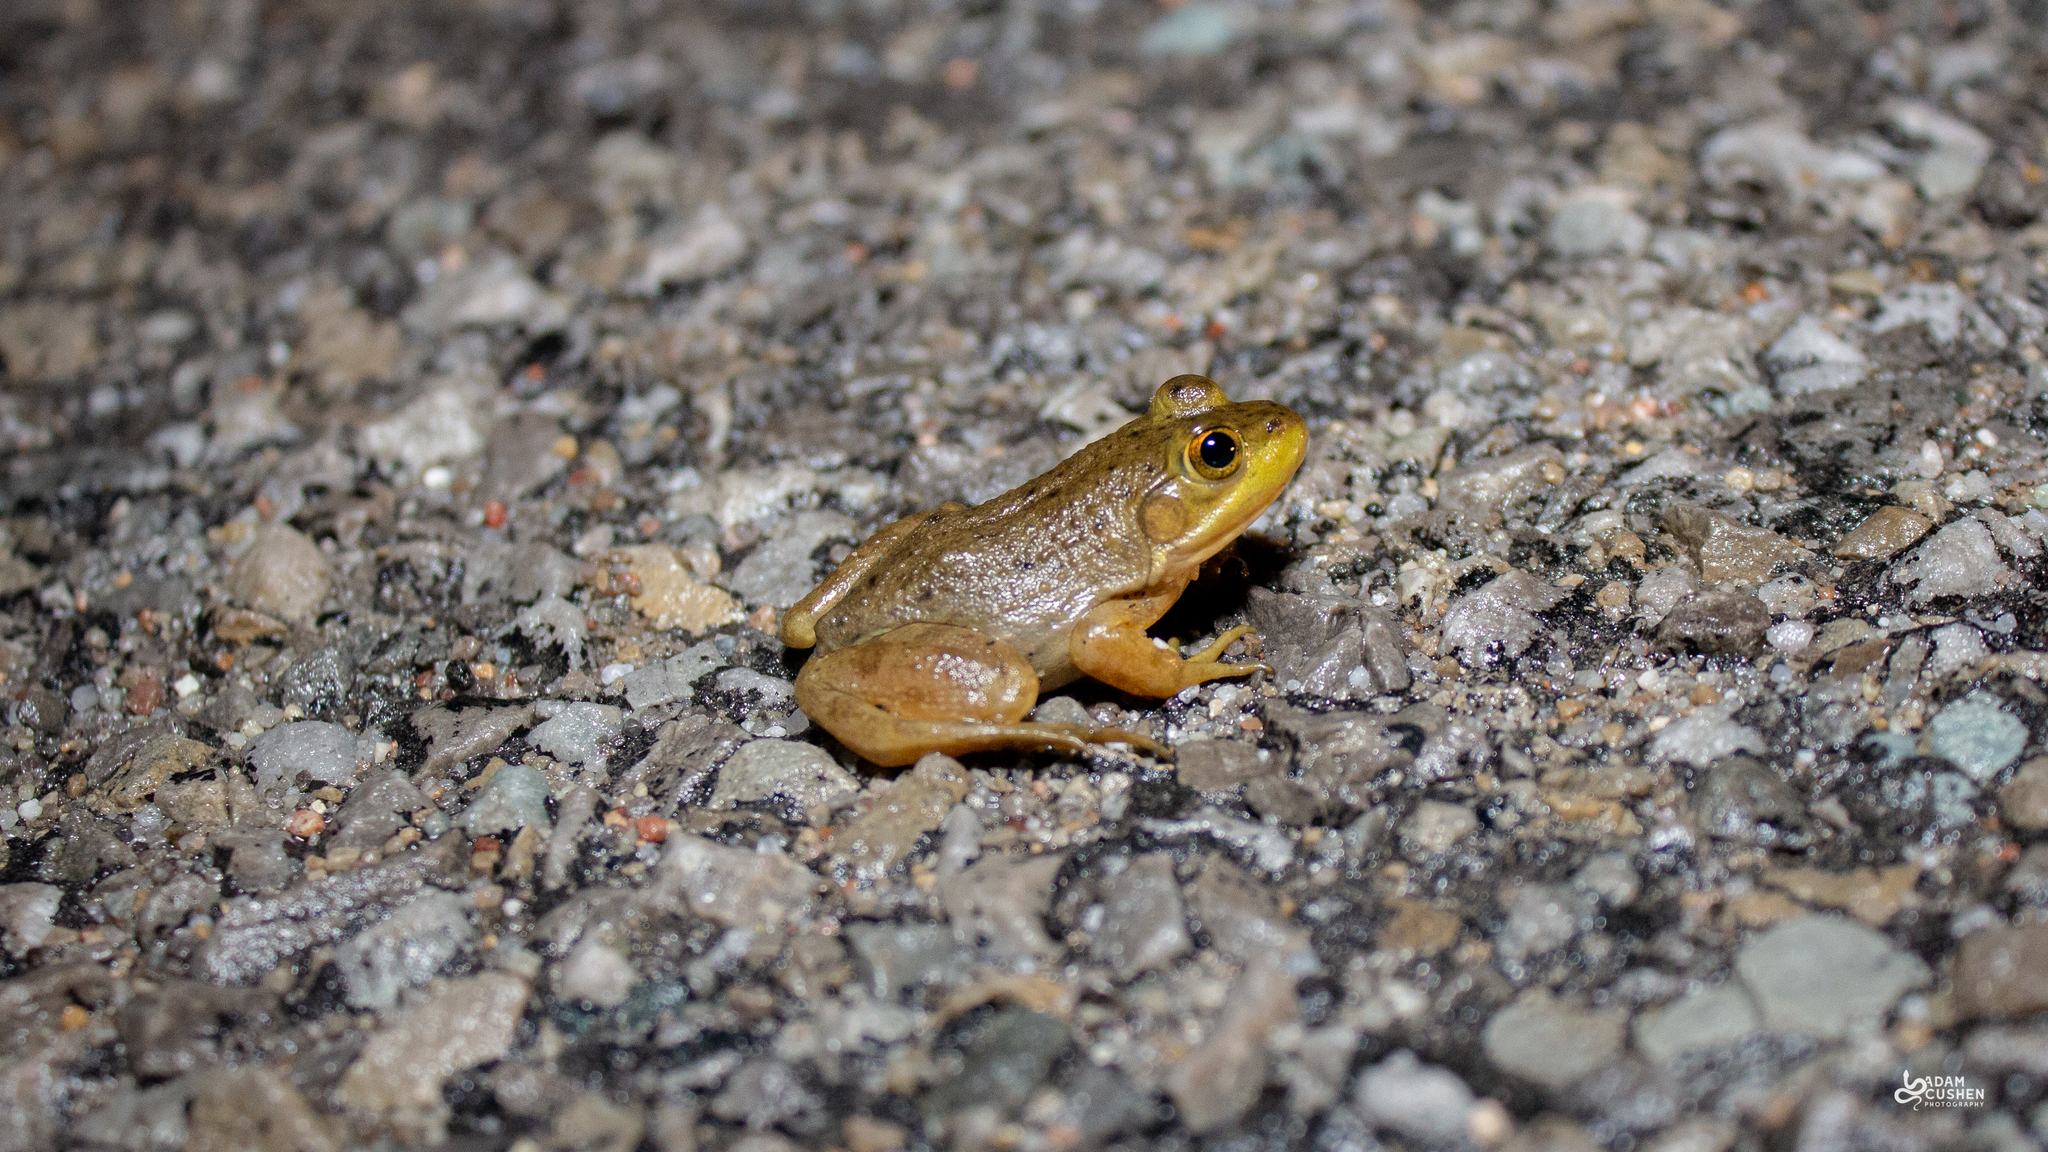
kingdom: Animalia
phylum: Chordata
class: Amphibia
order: Anura
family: Ranidae
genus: Lithobates
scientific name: Lithobates catesbeianus
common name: American bullfrog
